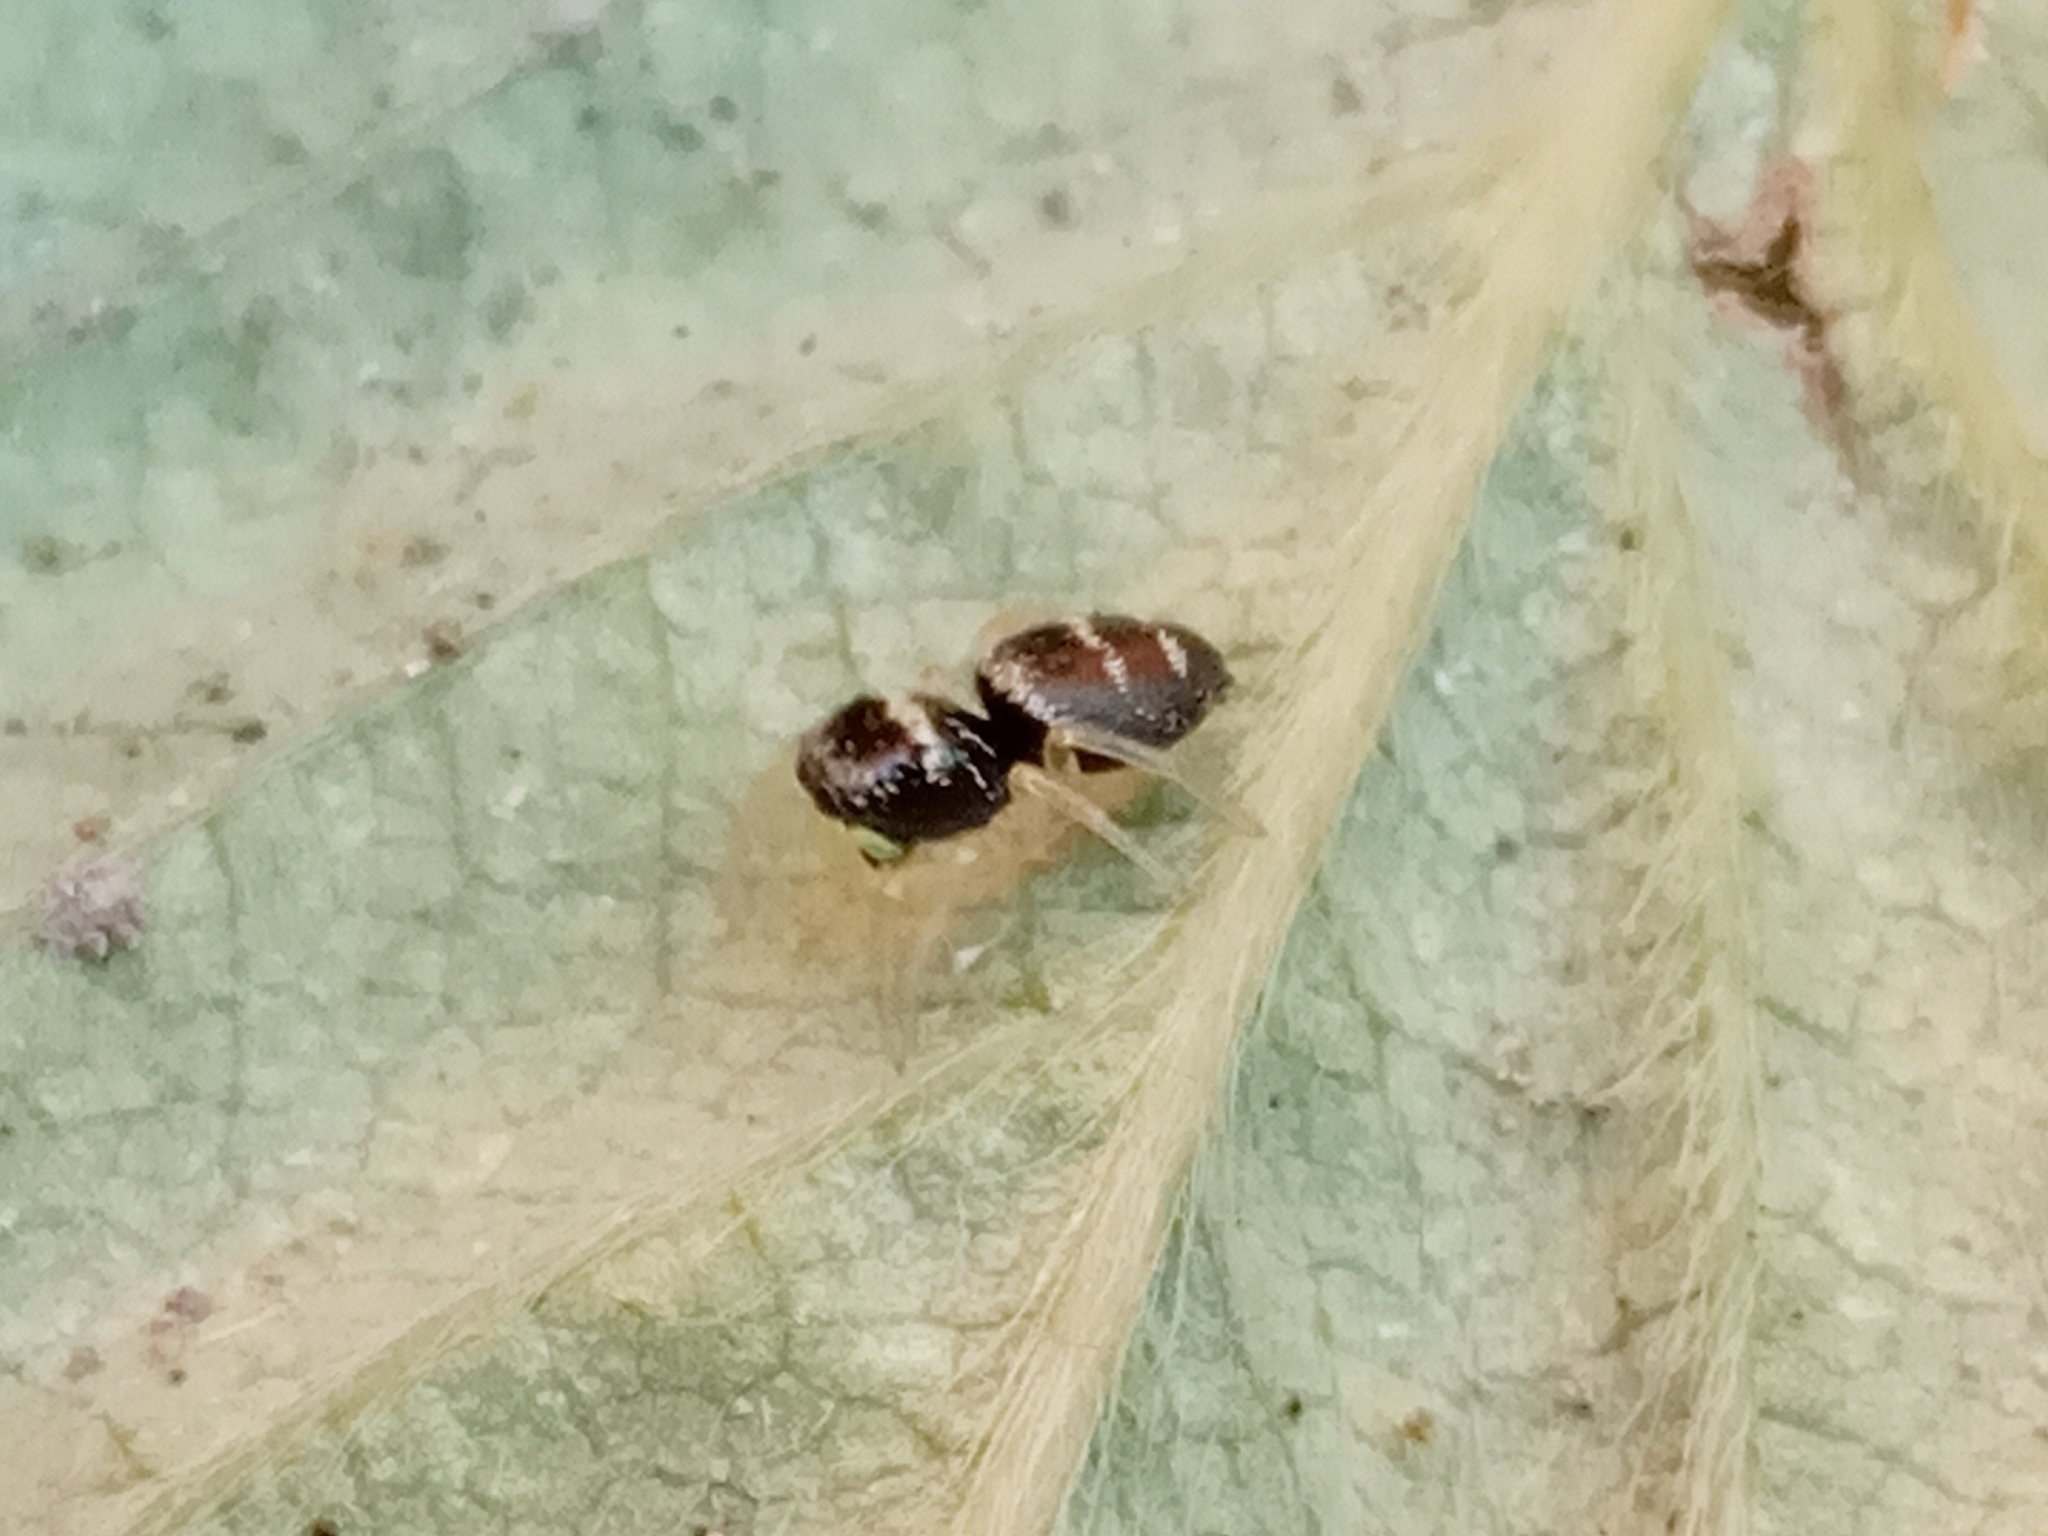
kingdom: Animalia
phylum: Arthropoda
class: Arachnida
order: Araneae
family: Salticidae
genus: Heliophanus
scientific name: Heliophanus cupreus
